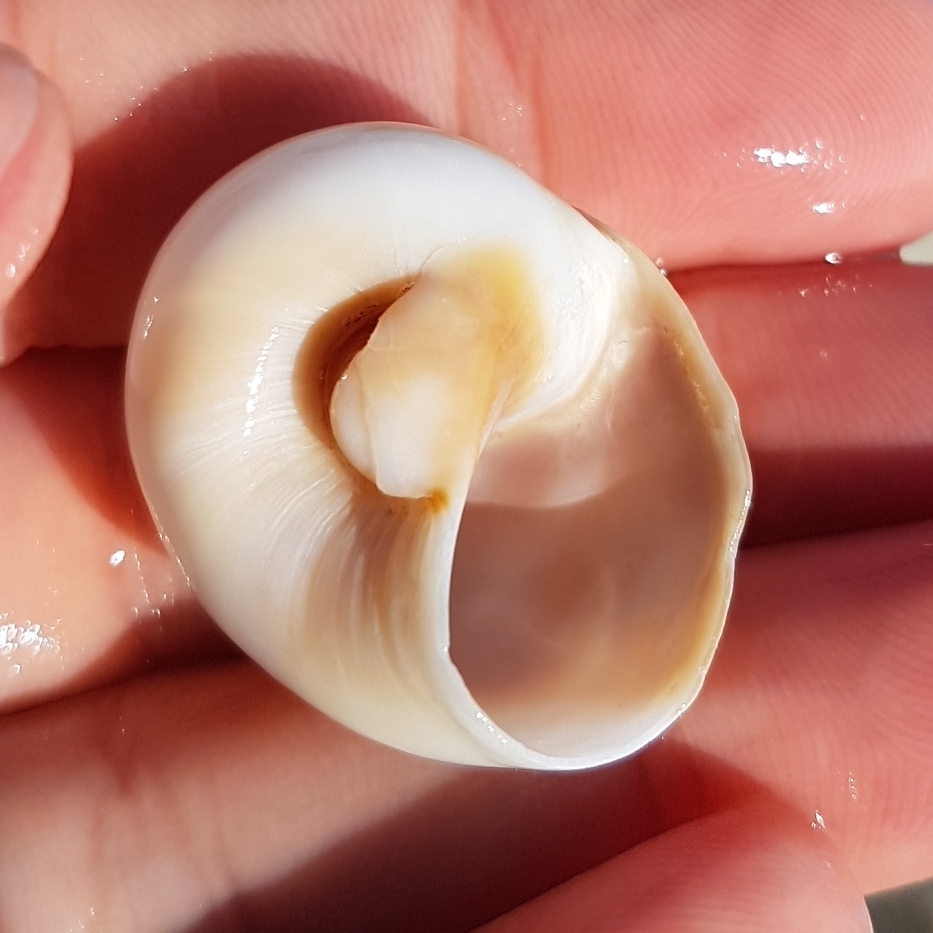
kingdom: Animalia
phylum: Mollusca
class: Gastropoda
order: Littorinimorpha
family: Naticidae
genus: Neverita
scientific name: Neverita josephinia
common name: Josephine's moonsnail
